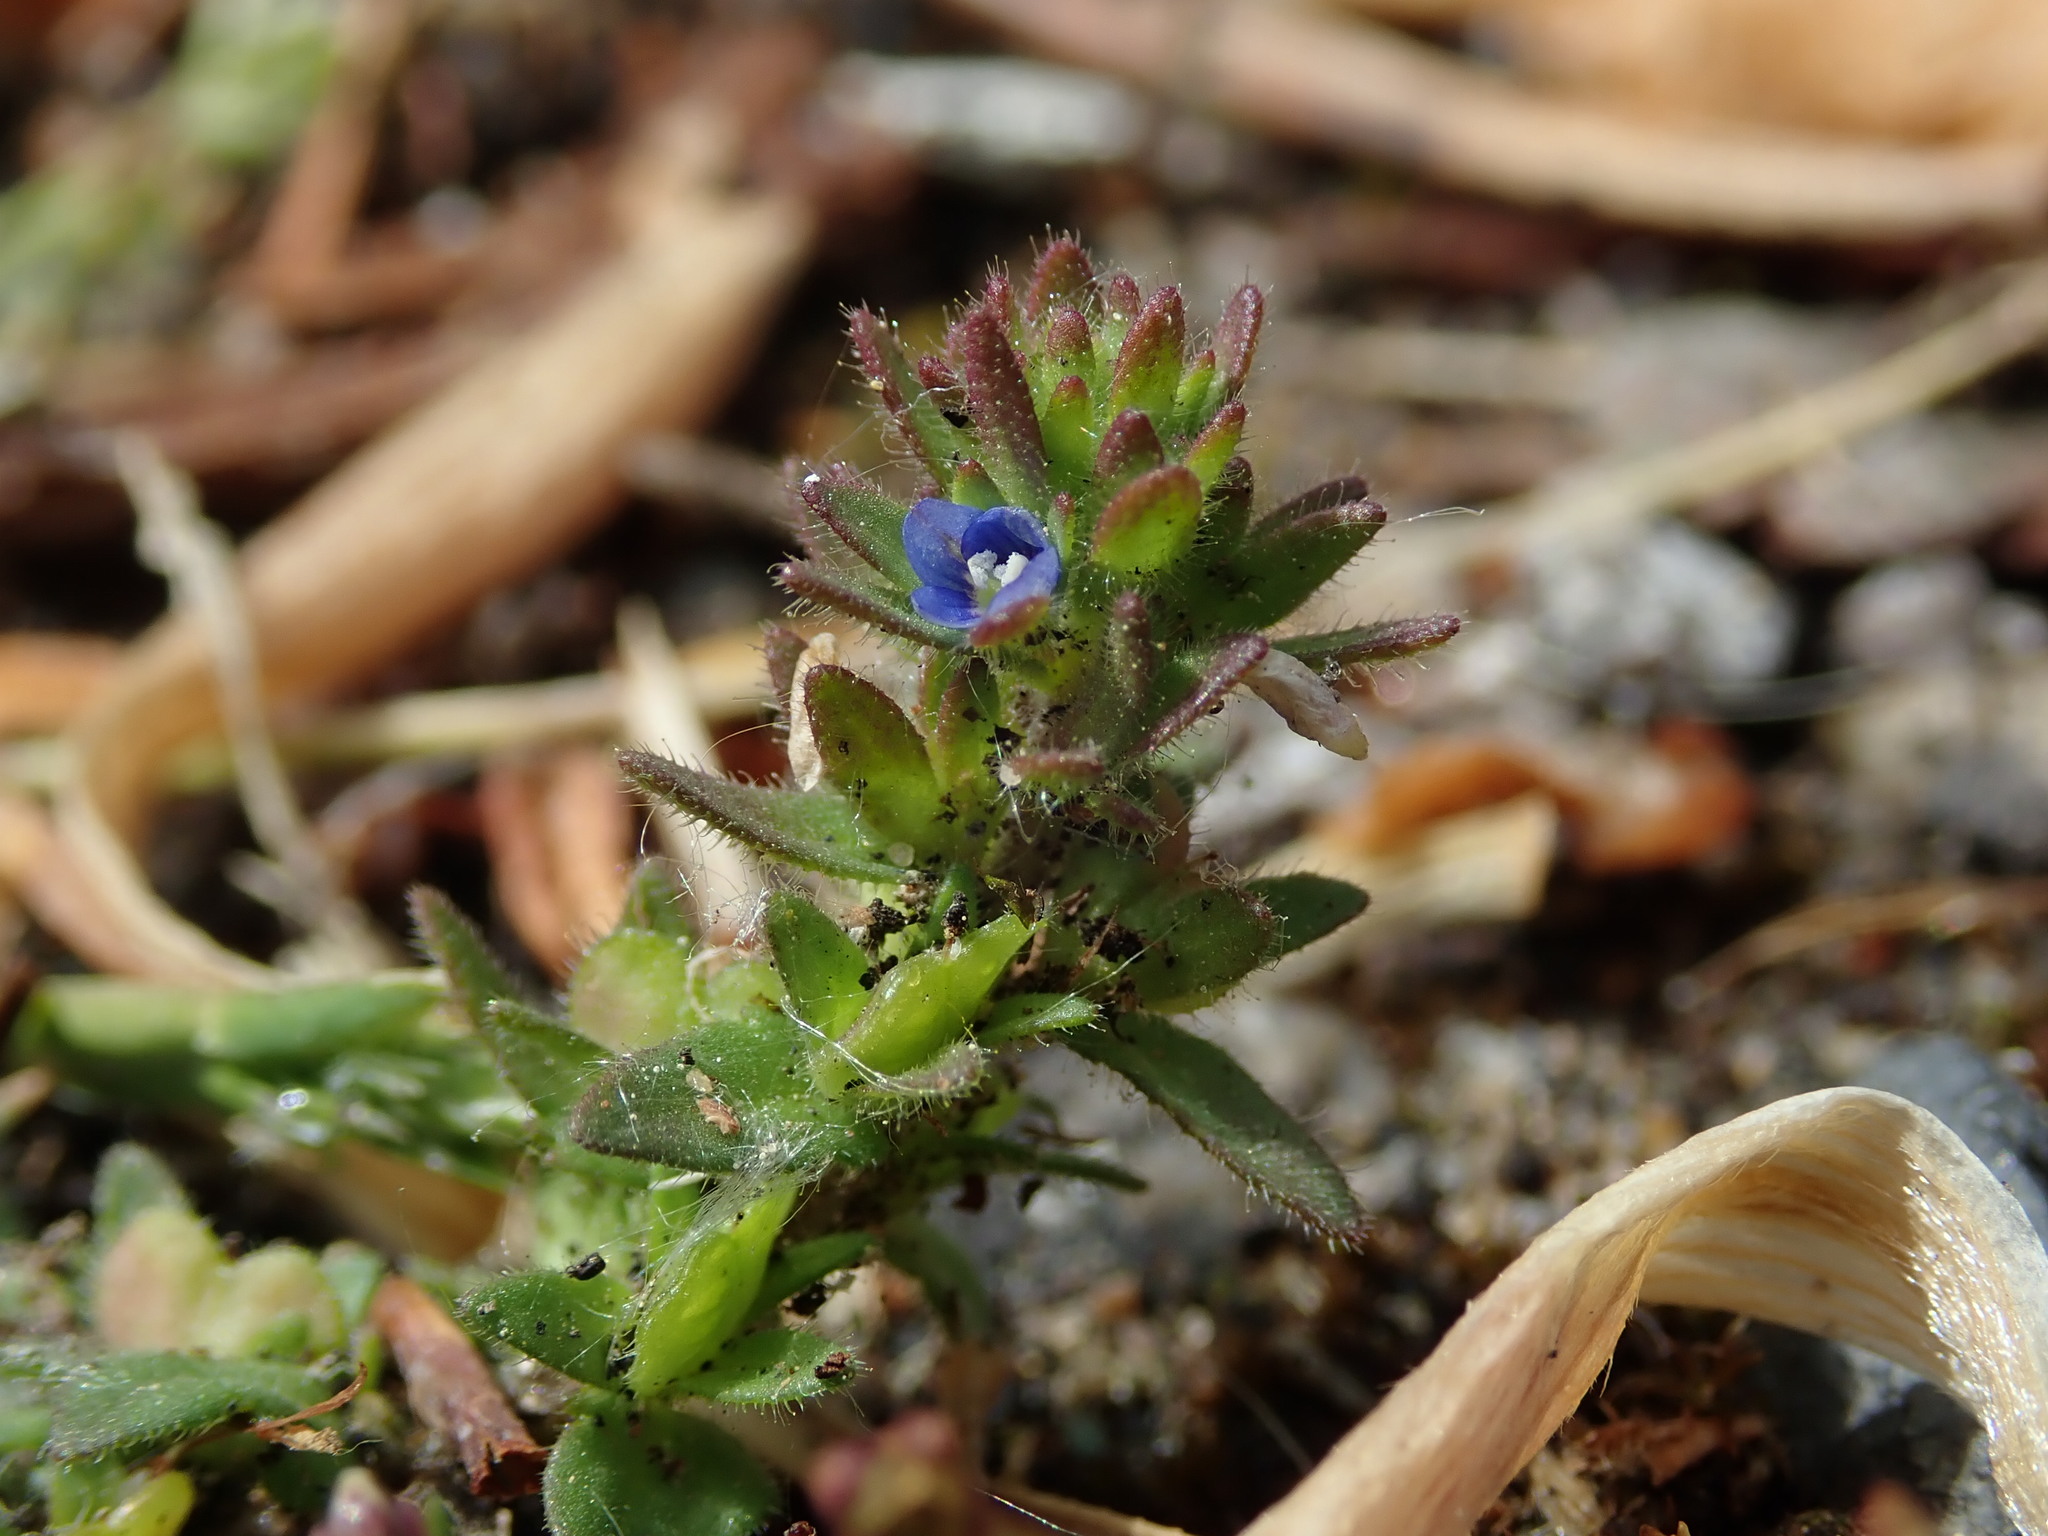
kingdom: Plantae
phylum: Tracheophyta
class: Magnoliopsida
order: Lamiales
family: Plantaginaceae
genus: Veronica
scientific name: Veronica arvensis
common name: Corn speedwell
